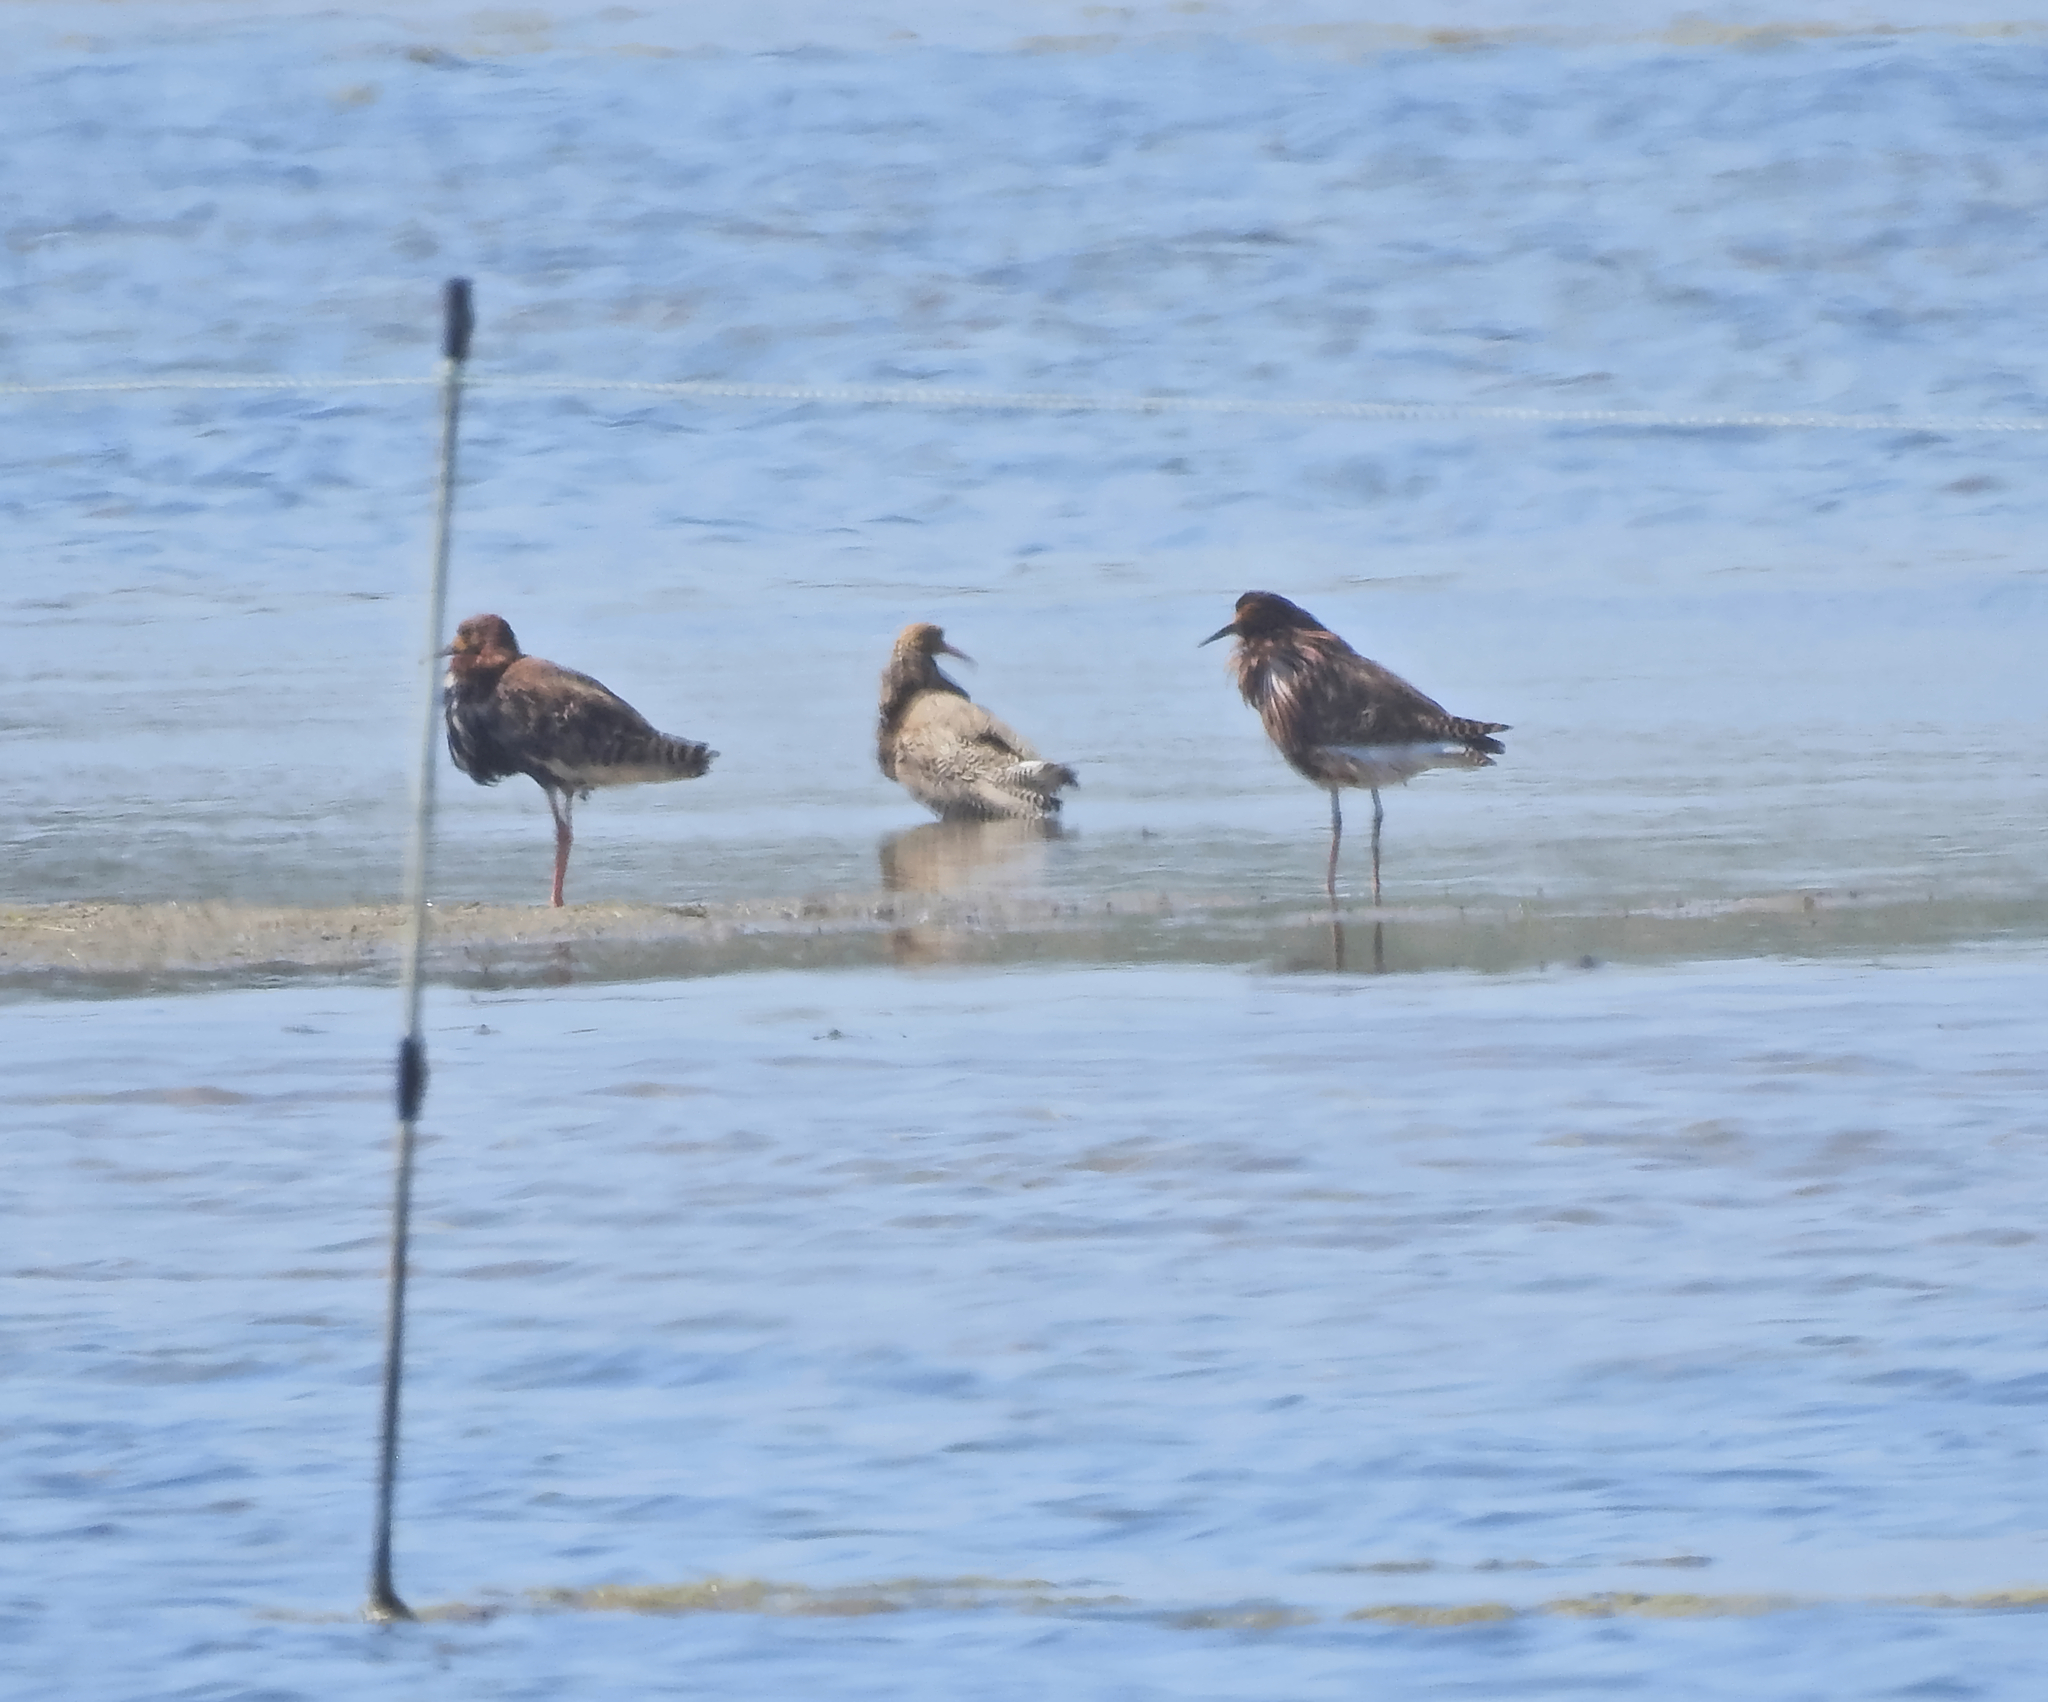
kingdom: Animalia
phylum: Chordata
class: Aves
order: Charadriiformes
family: Scolopacidae
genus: Calidris
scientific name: Calidris pugnax
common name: Ruff
